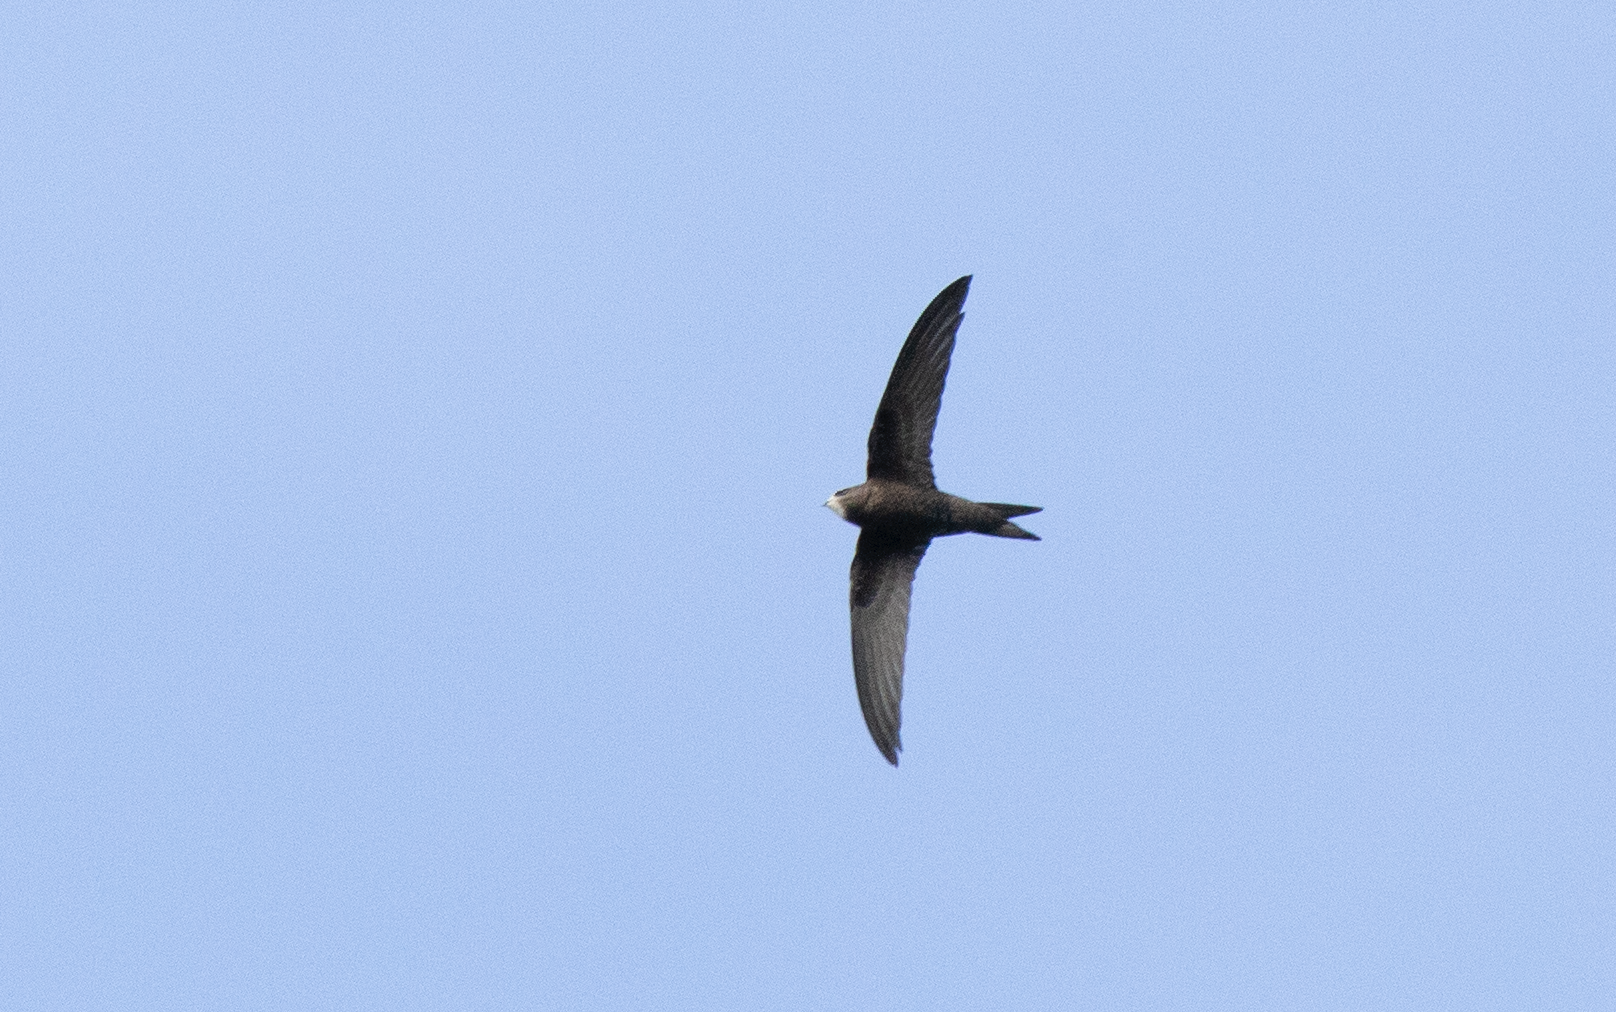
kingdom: Animalia
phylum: Chordata
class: Aves
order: Apodiformes
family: Apodidae
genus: Apus
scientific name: Apus apus
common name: Common swift
